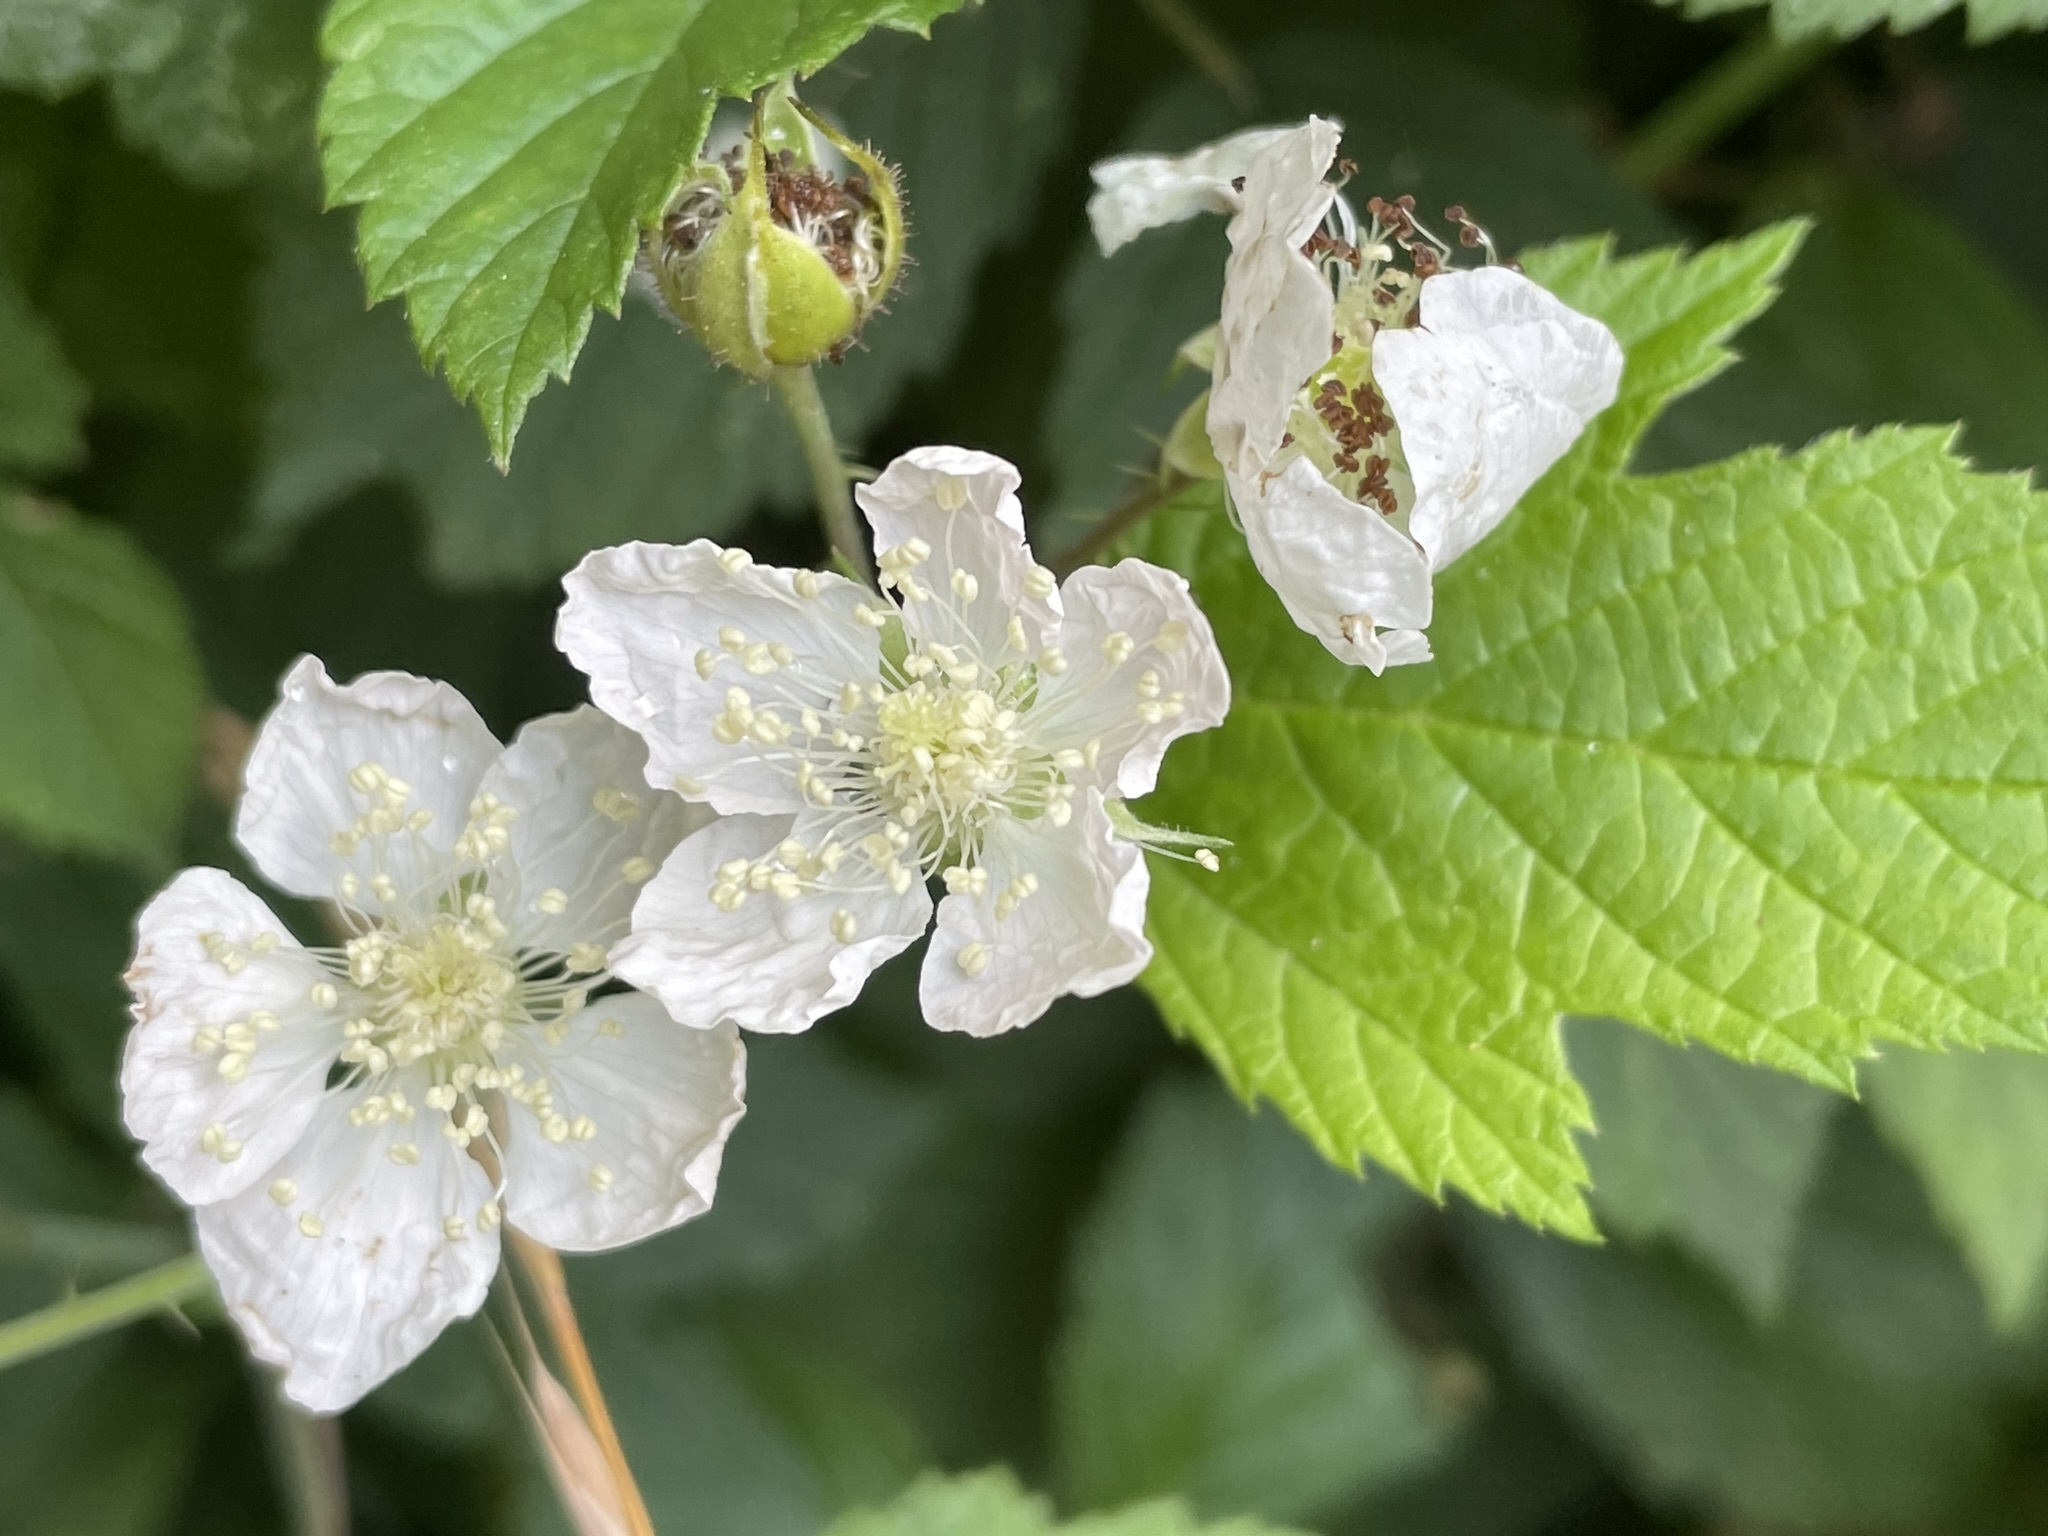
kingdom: Plantae
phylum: Tracheophyta
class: Magnoliopsida
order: Rosales
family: Rosaceae
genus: Rubus
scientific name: Rubus caesius
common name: Dewberry
